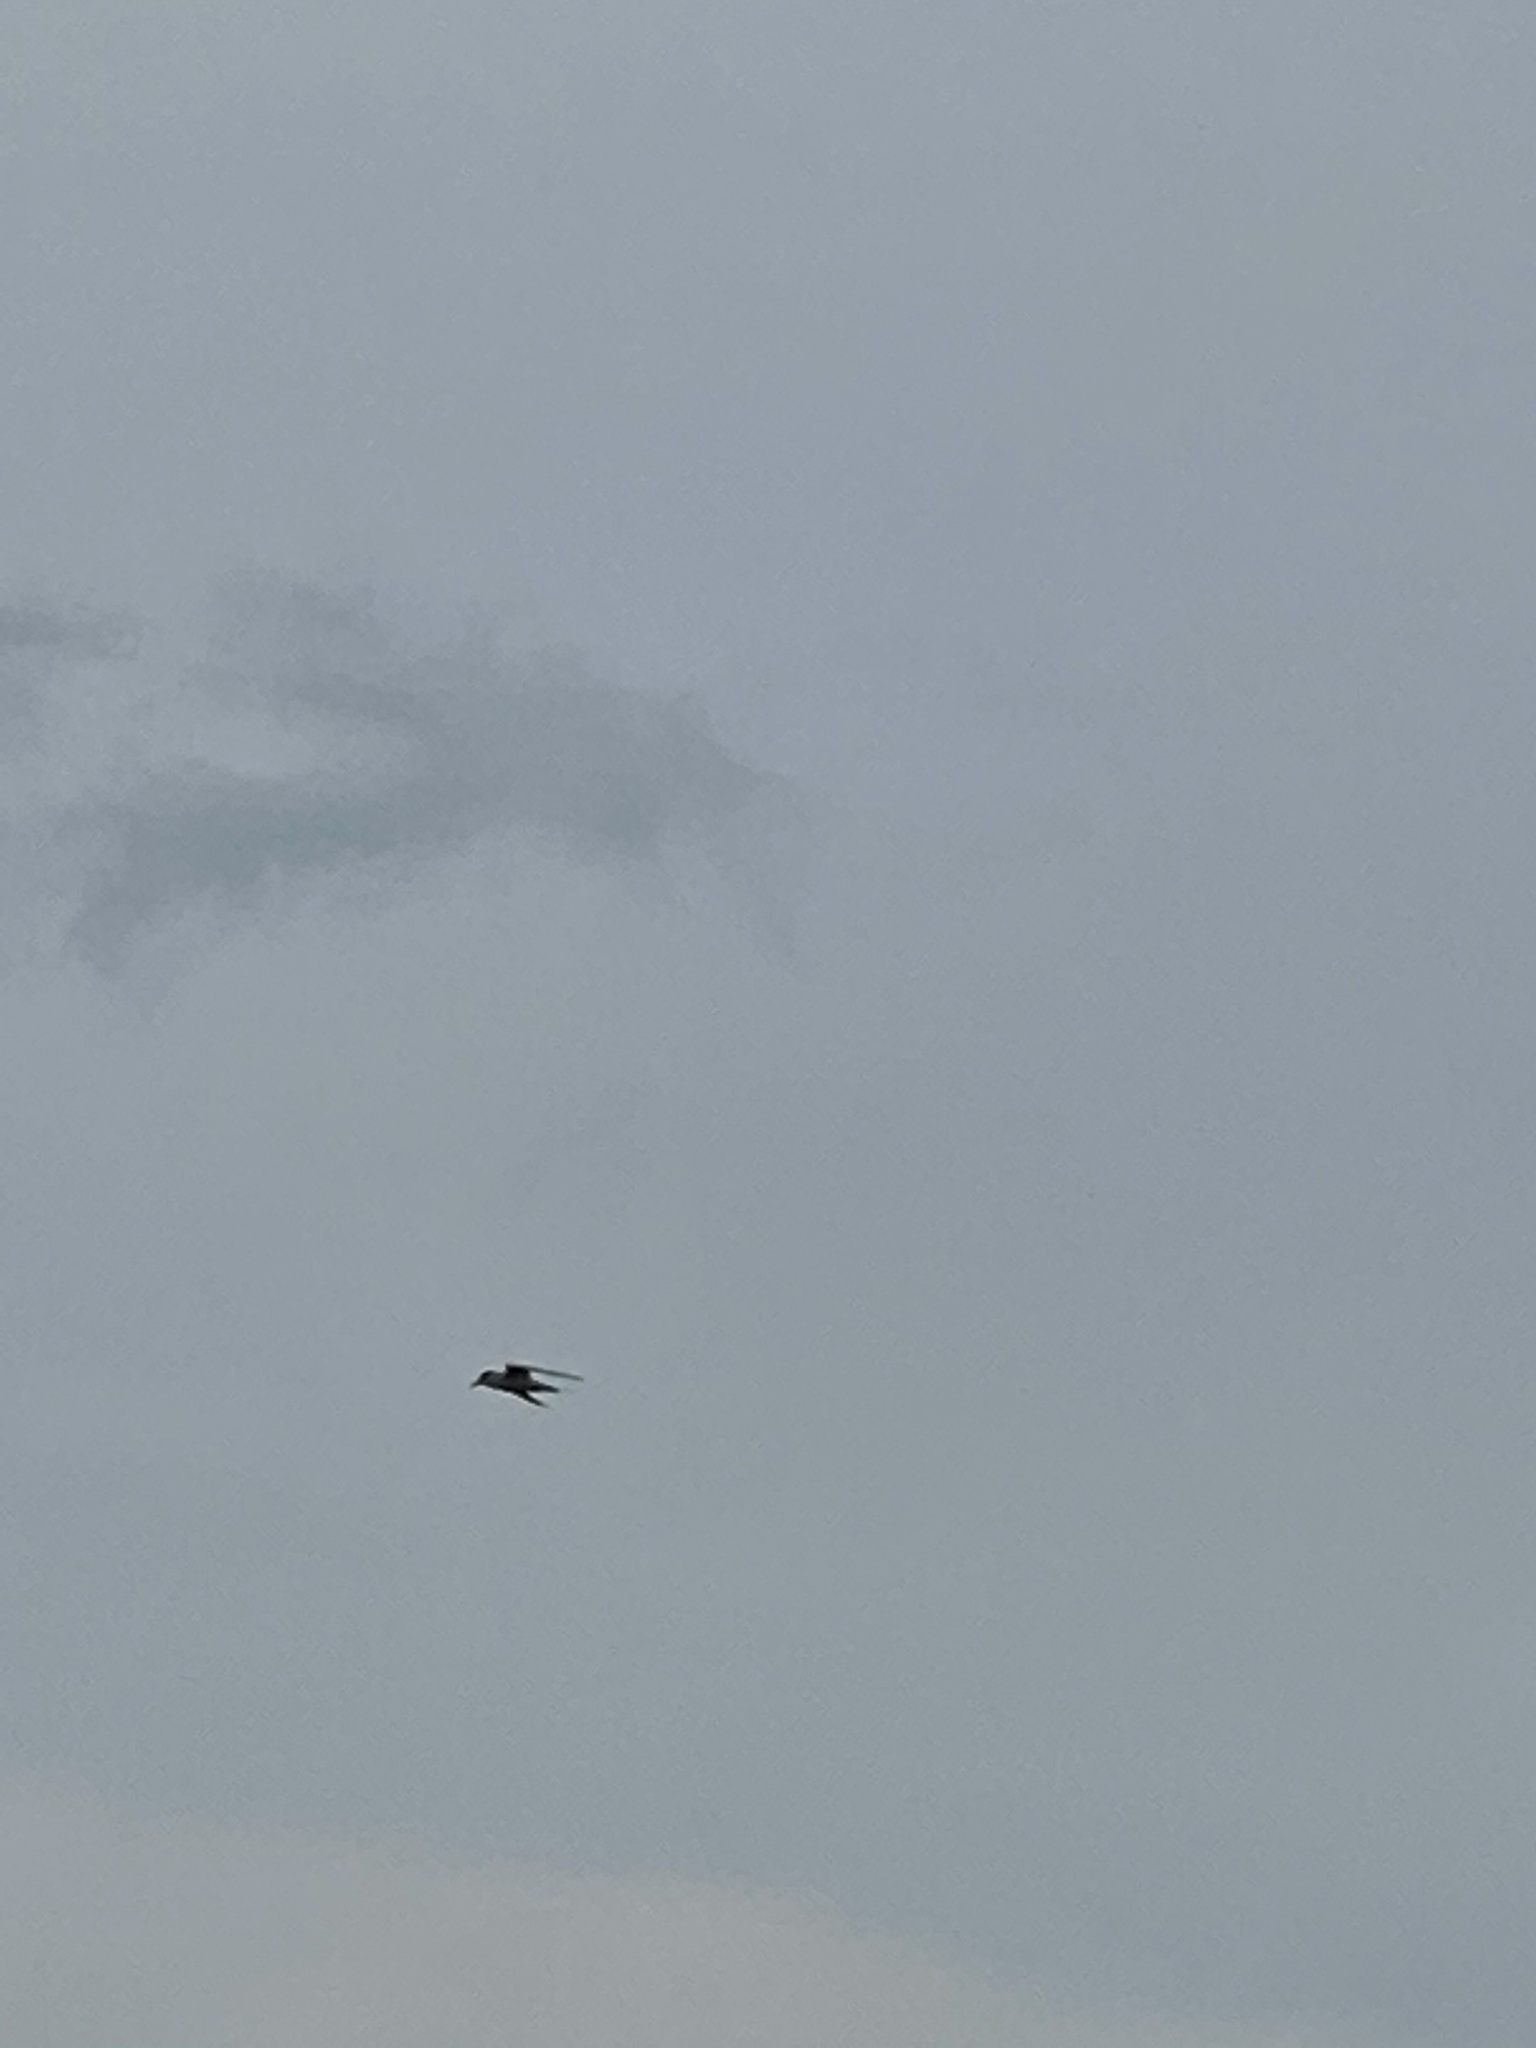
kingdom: Animalia
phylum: Chordata
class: Aves
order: Charadriiformes
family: Laridae
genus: Sternula
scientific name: Sternula antillarum
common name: Least tern
